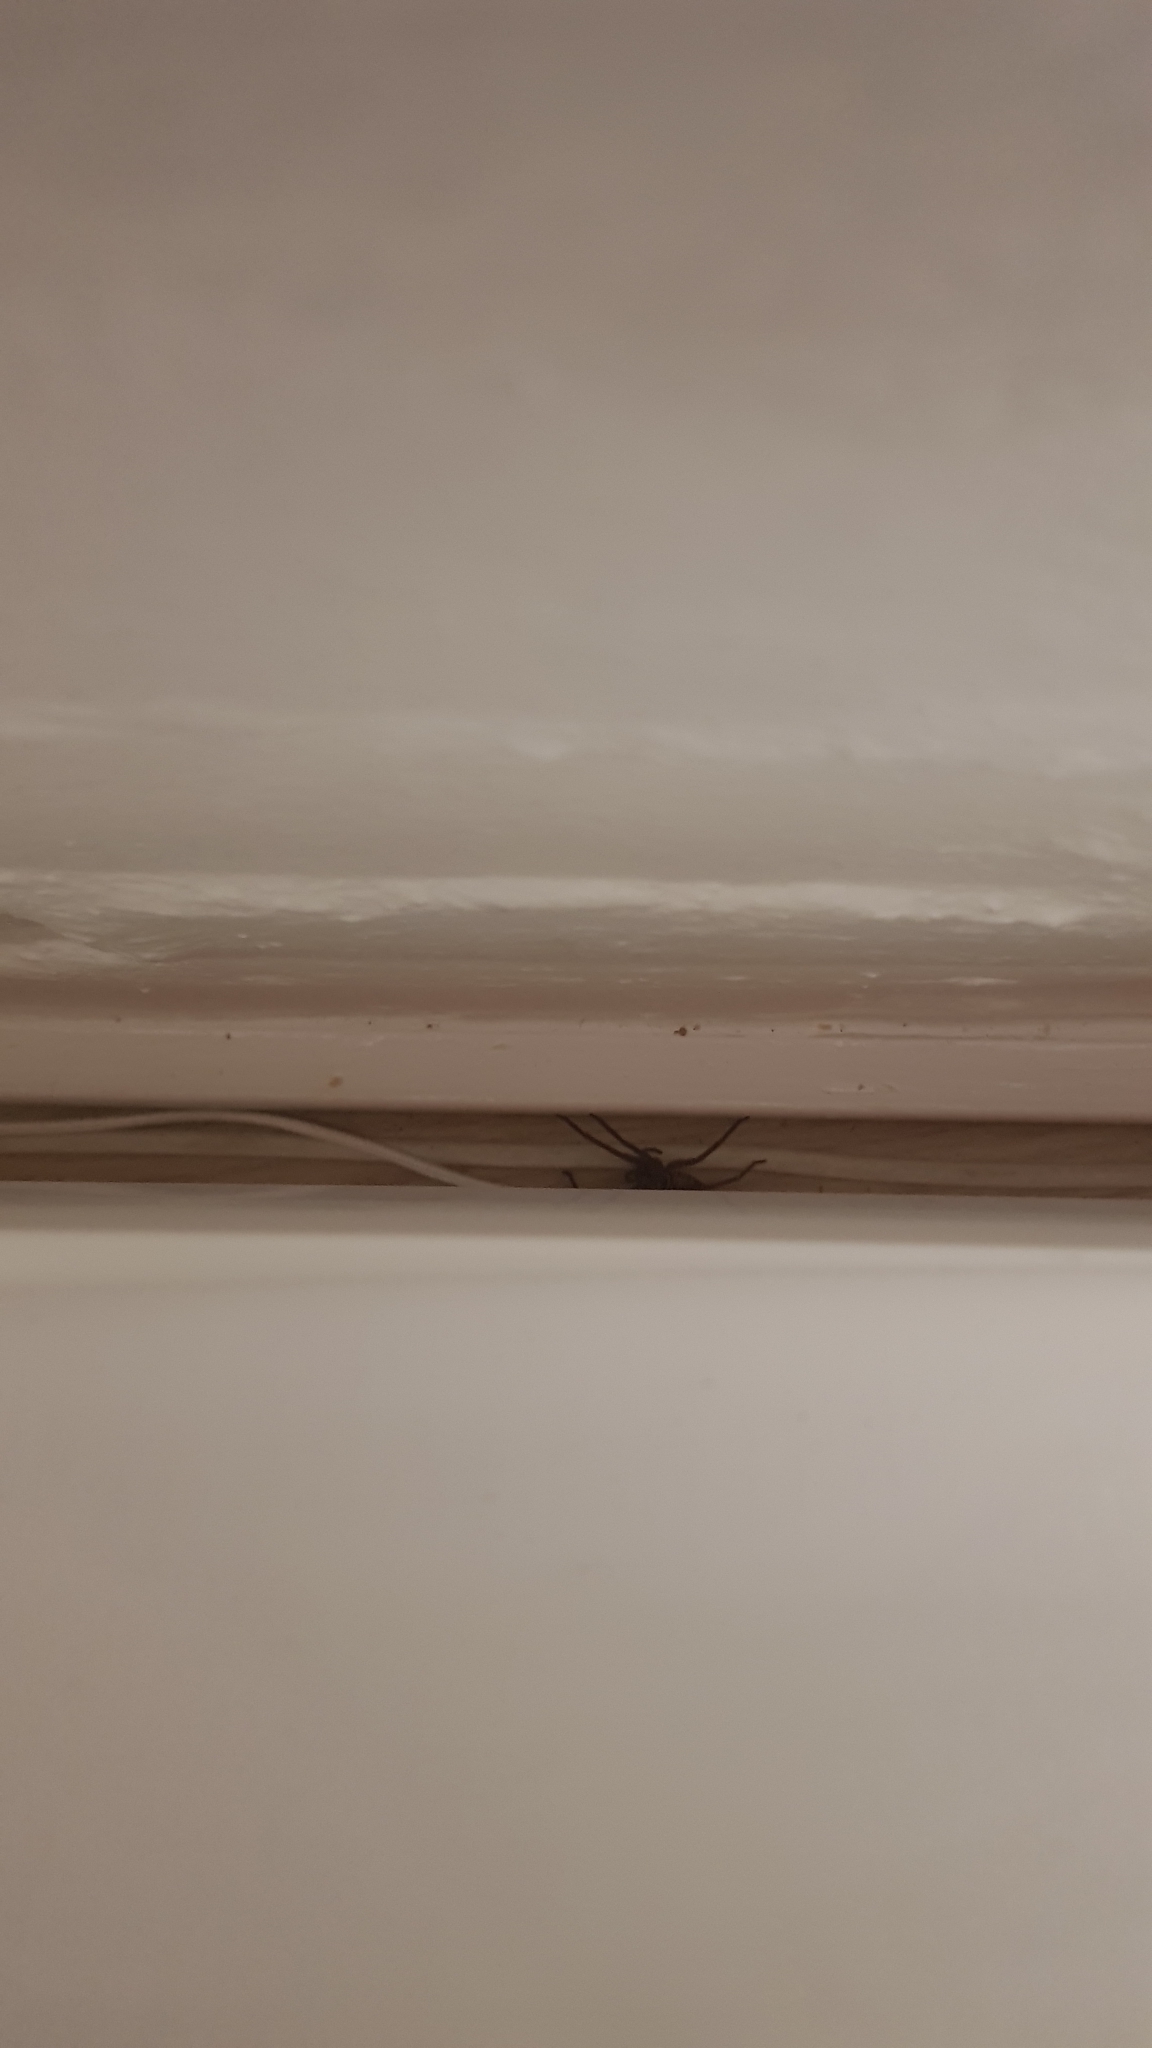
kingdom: Animalia
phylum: Arthropoda
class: Arachnida
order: Araneae
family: Sparassidae
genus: Heteropoda
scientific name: Heteropoda jugulans
